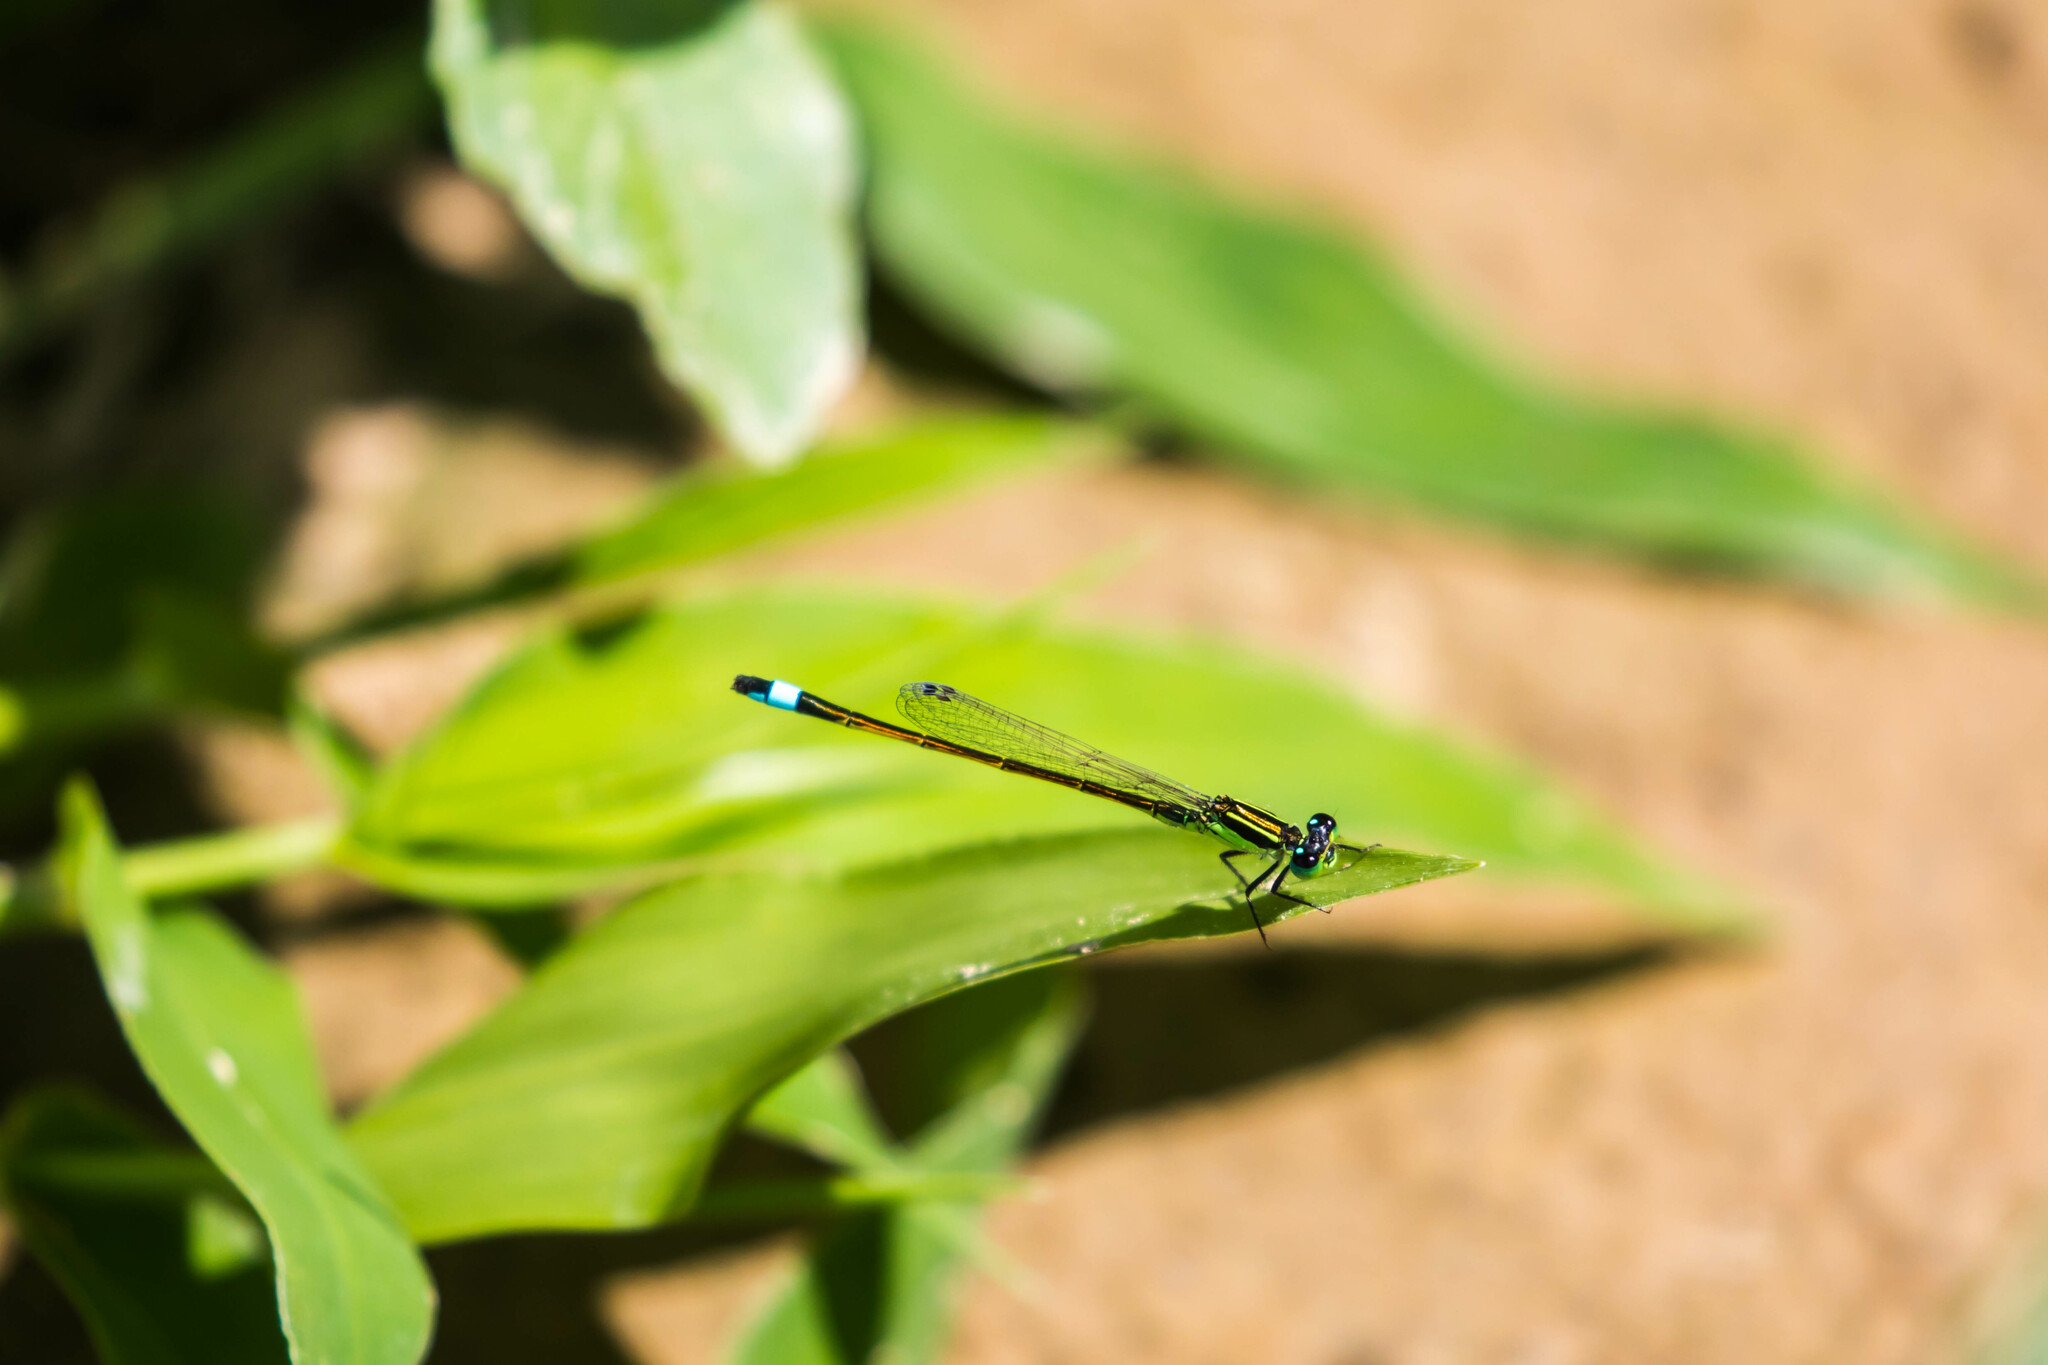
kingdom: Animalia
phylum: Arthropoda
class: Insecta
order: Odonata
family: Coenagrionidae
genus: Ischnura
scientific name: Ischnura ramburii
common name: Rambur's forktail
